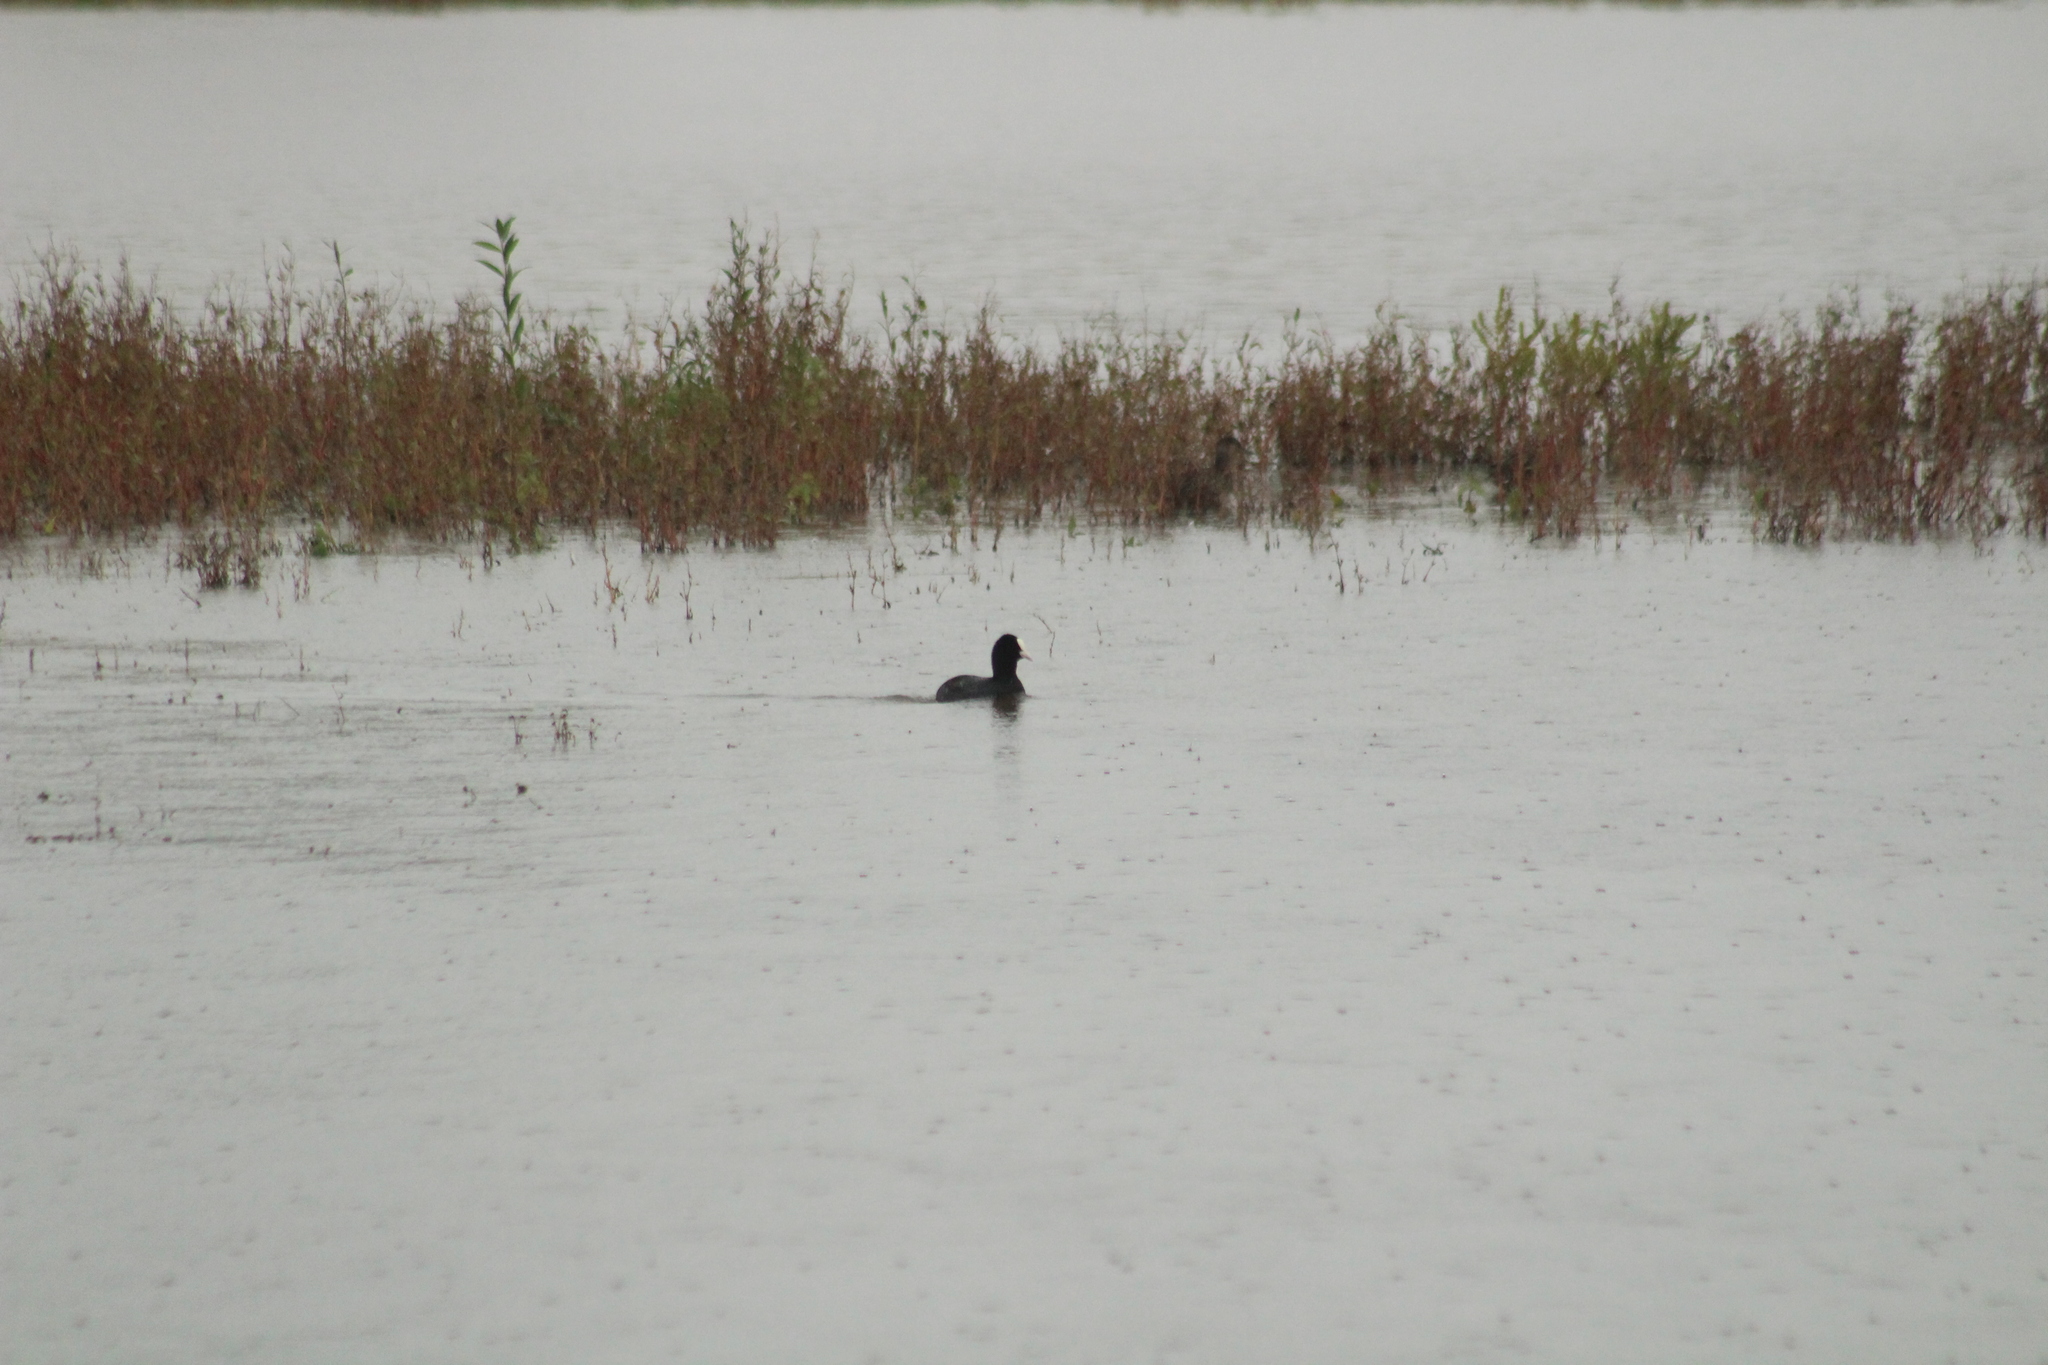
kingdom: Animalia
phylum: Chordata
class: Aves
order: Gruiformes
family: Rallidae
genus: Fulica
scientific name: Fulica atra
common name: Eurasian coot
